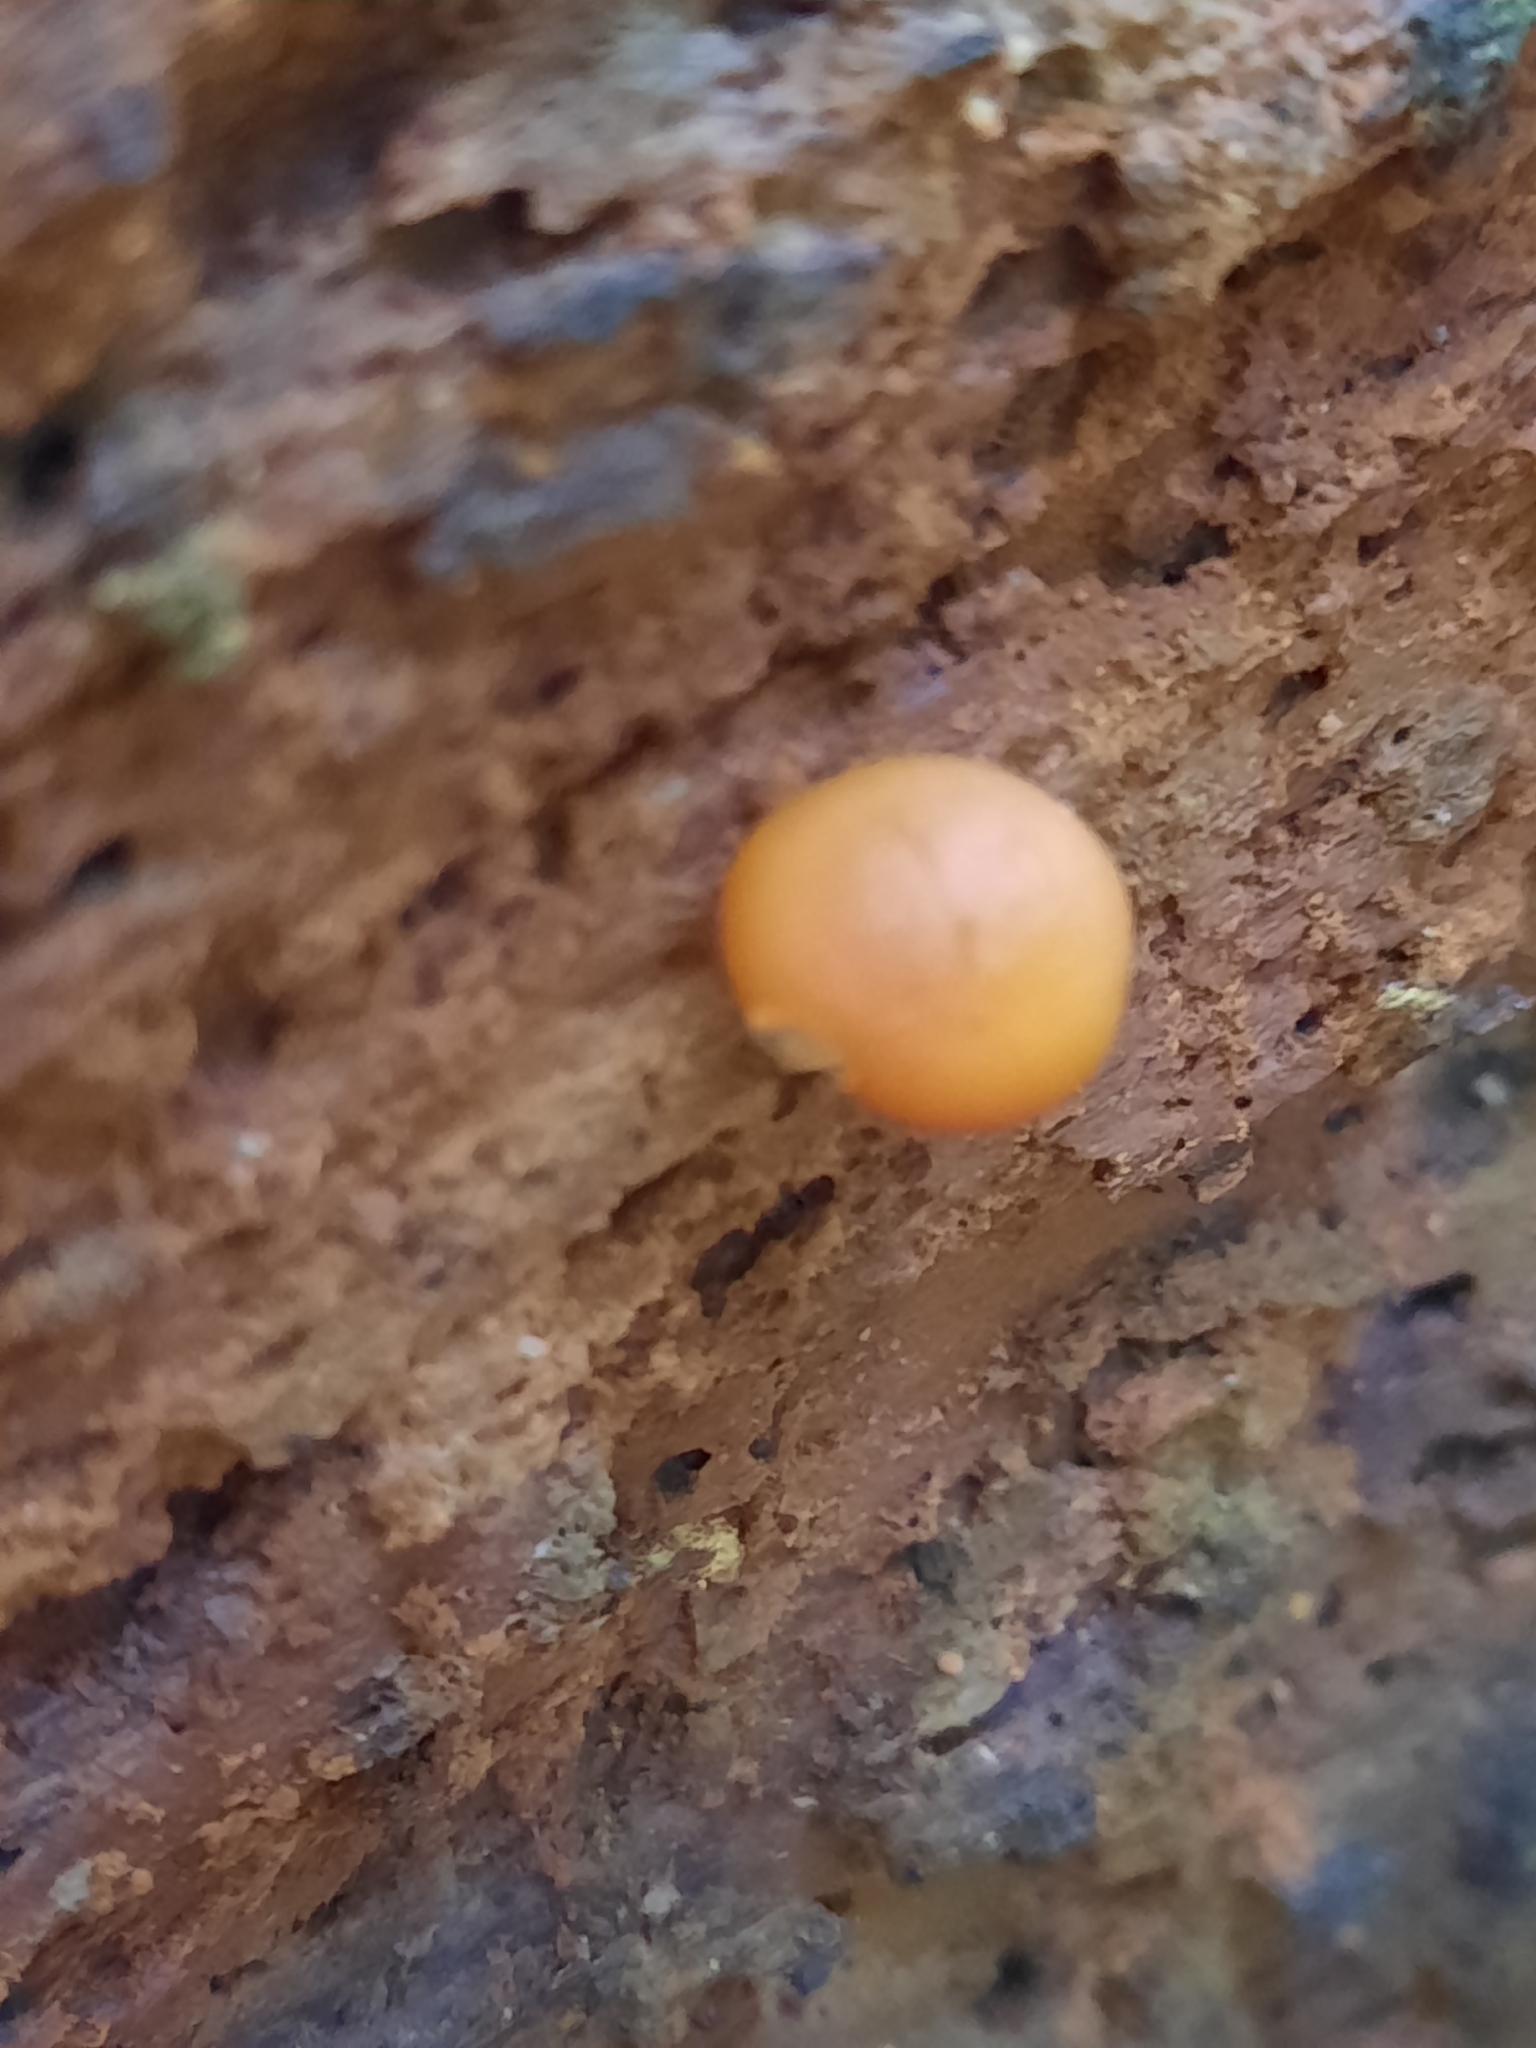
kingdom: Fungi
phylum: Basidiomycota
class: Agaricomycetes
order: Agaricales
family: Hymenogastraceae
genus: Galerina
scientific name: Galerina marginata
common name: Funeral bell
